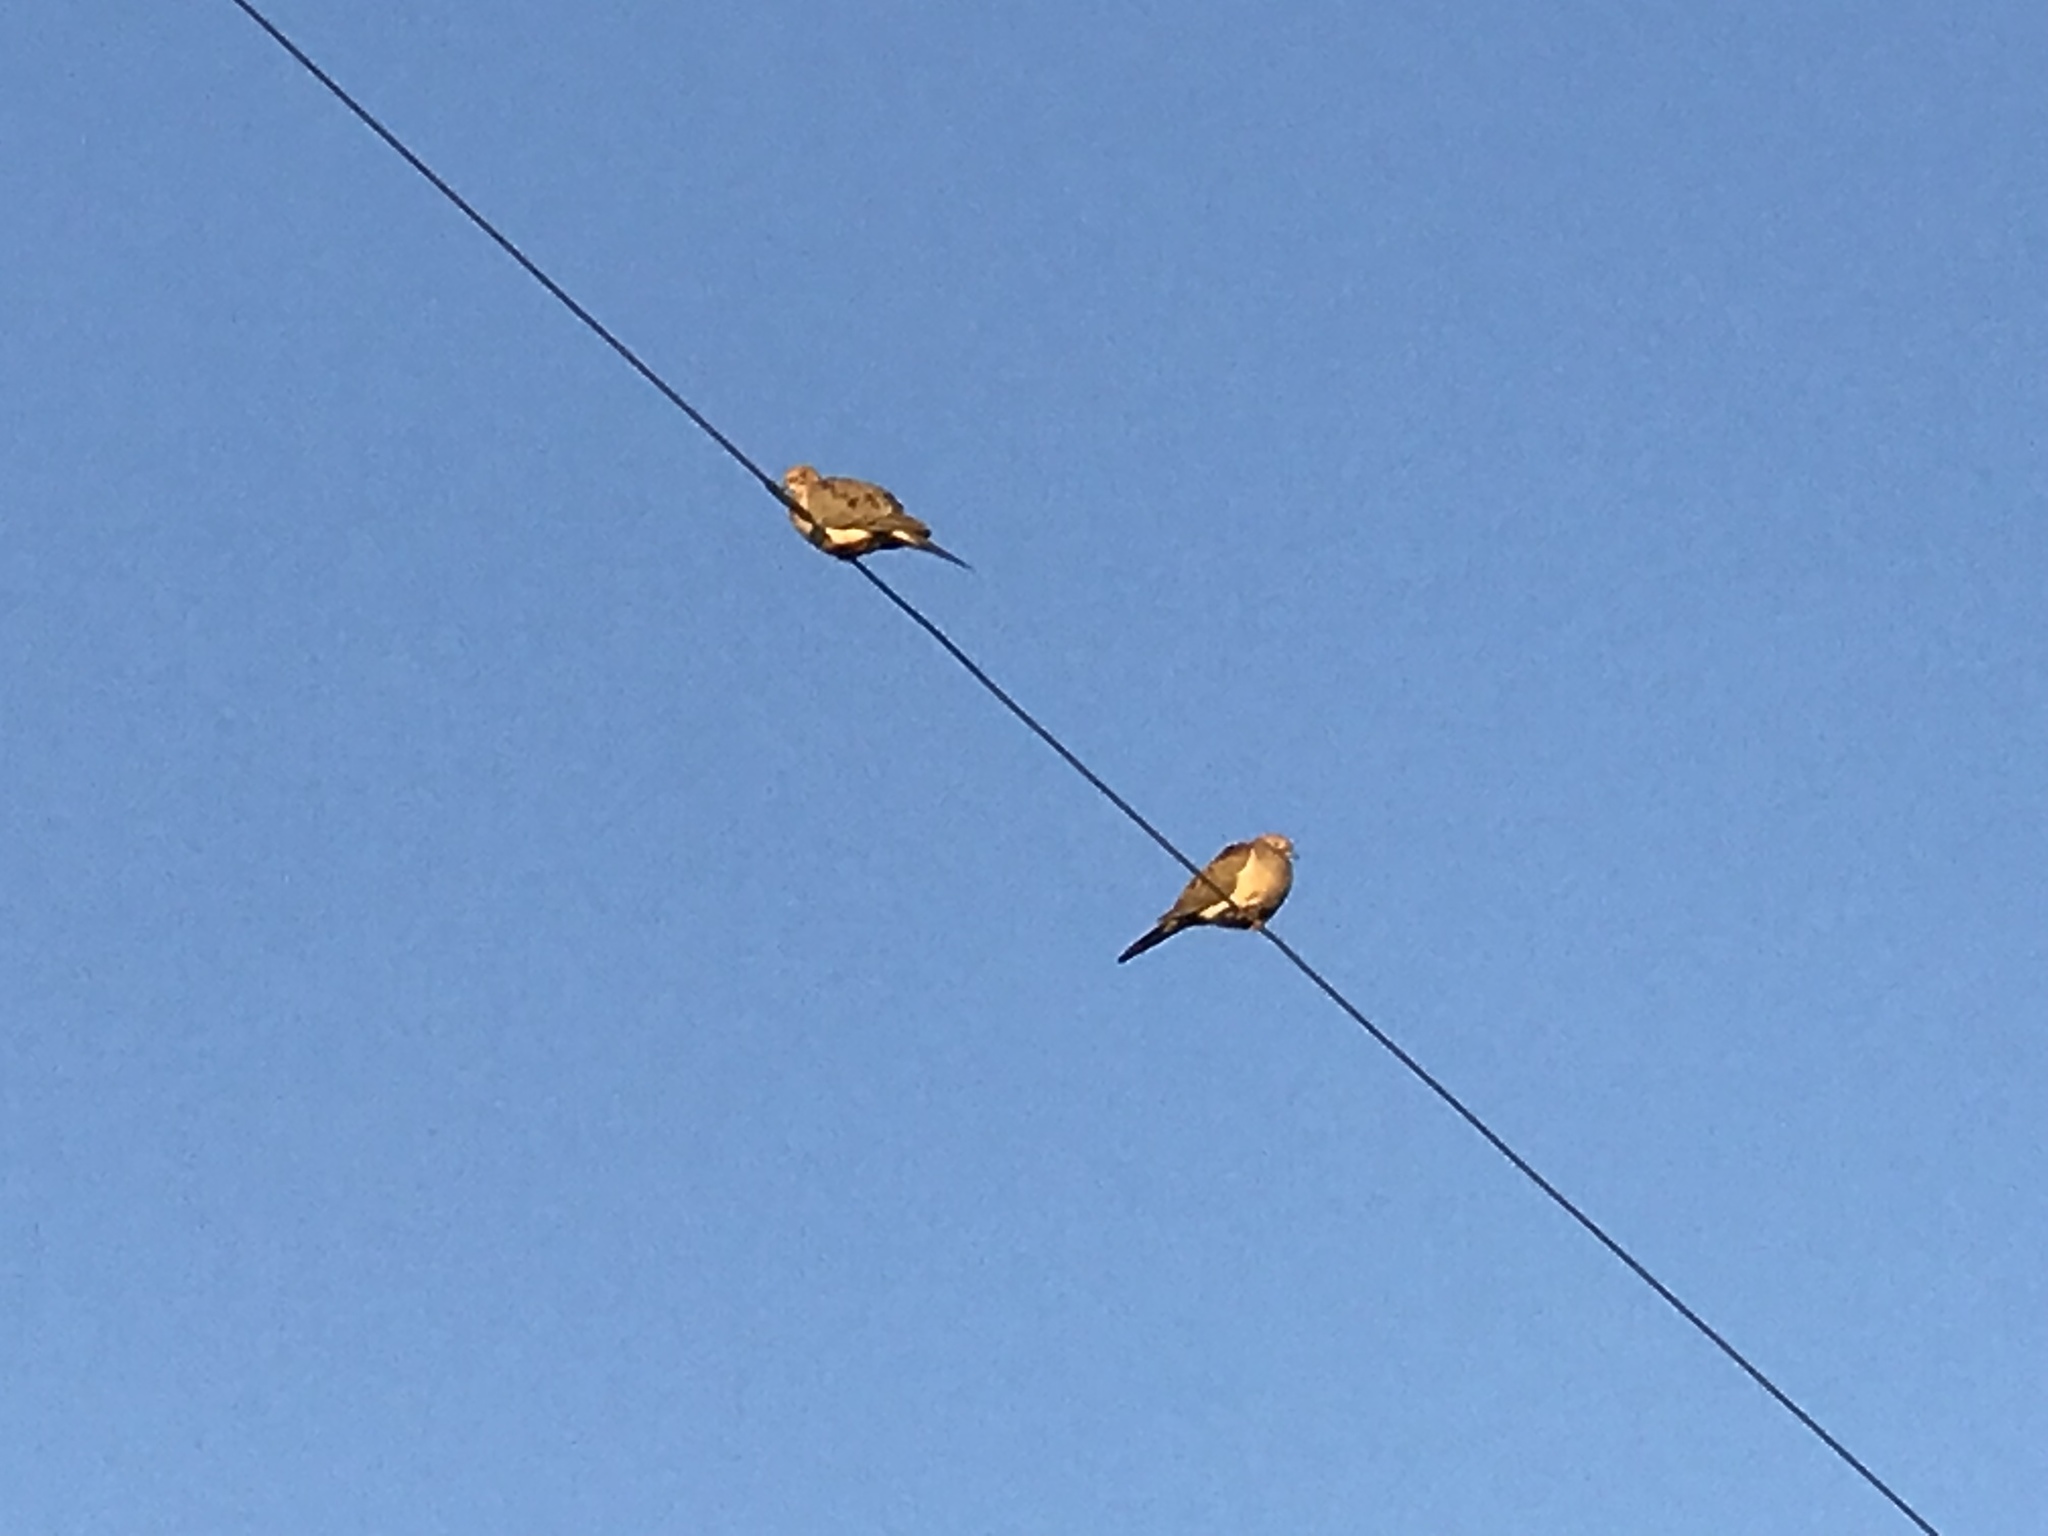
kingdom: Animalia
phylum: Chordata
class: Aves
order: Columbiformes
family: Columbidae
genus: Zenaida
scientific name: Zenaida macroura
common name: Mourning dove
